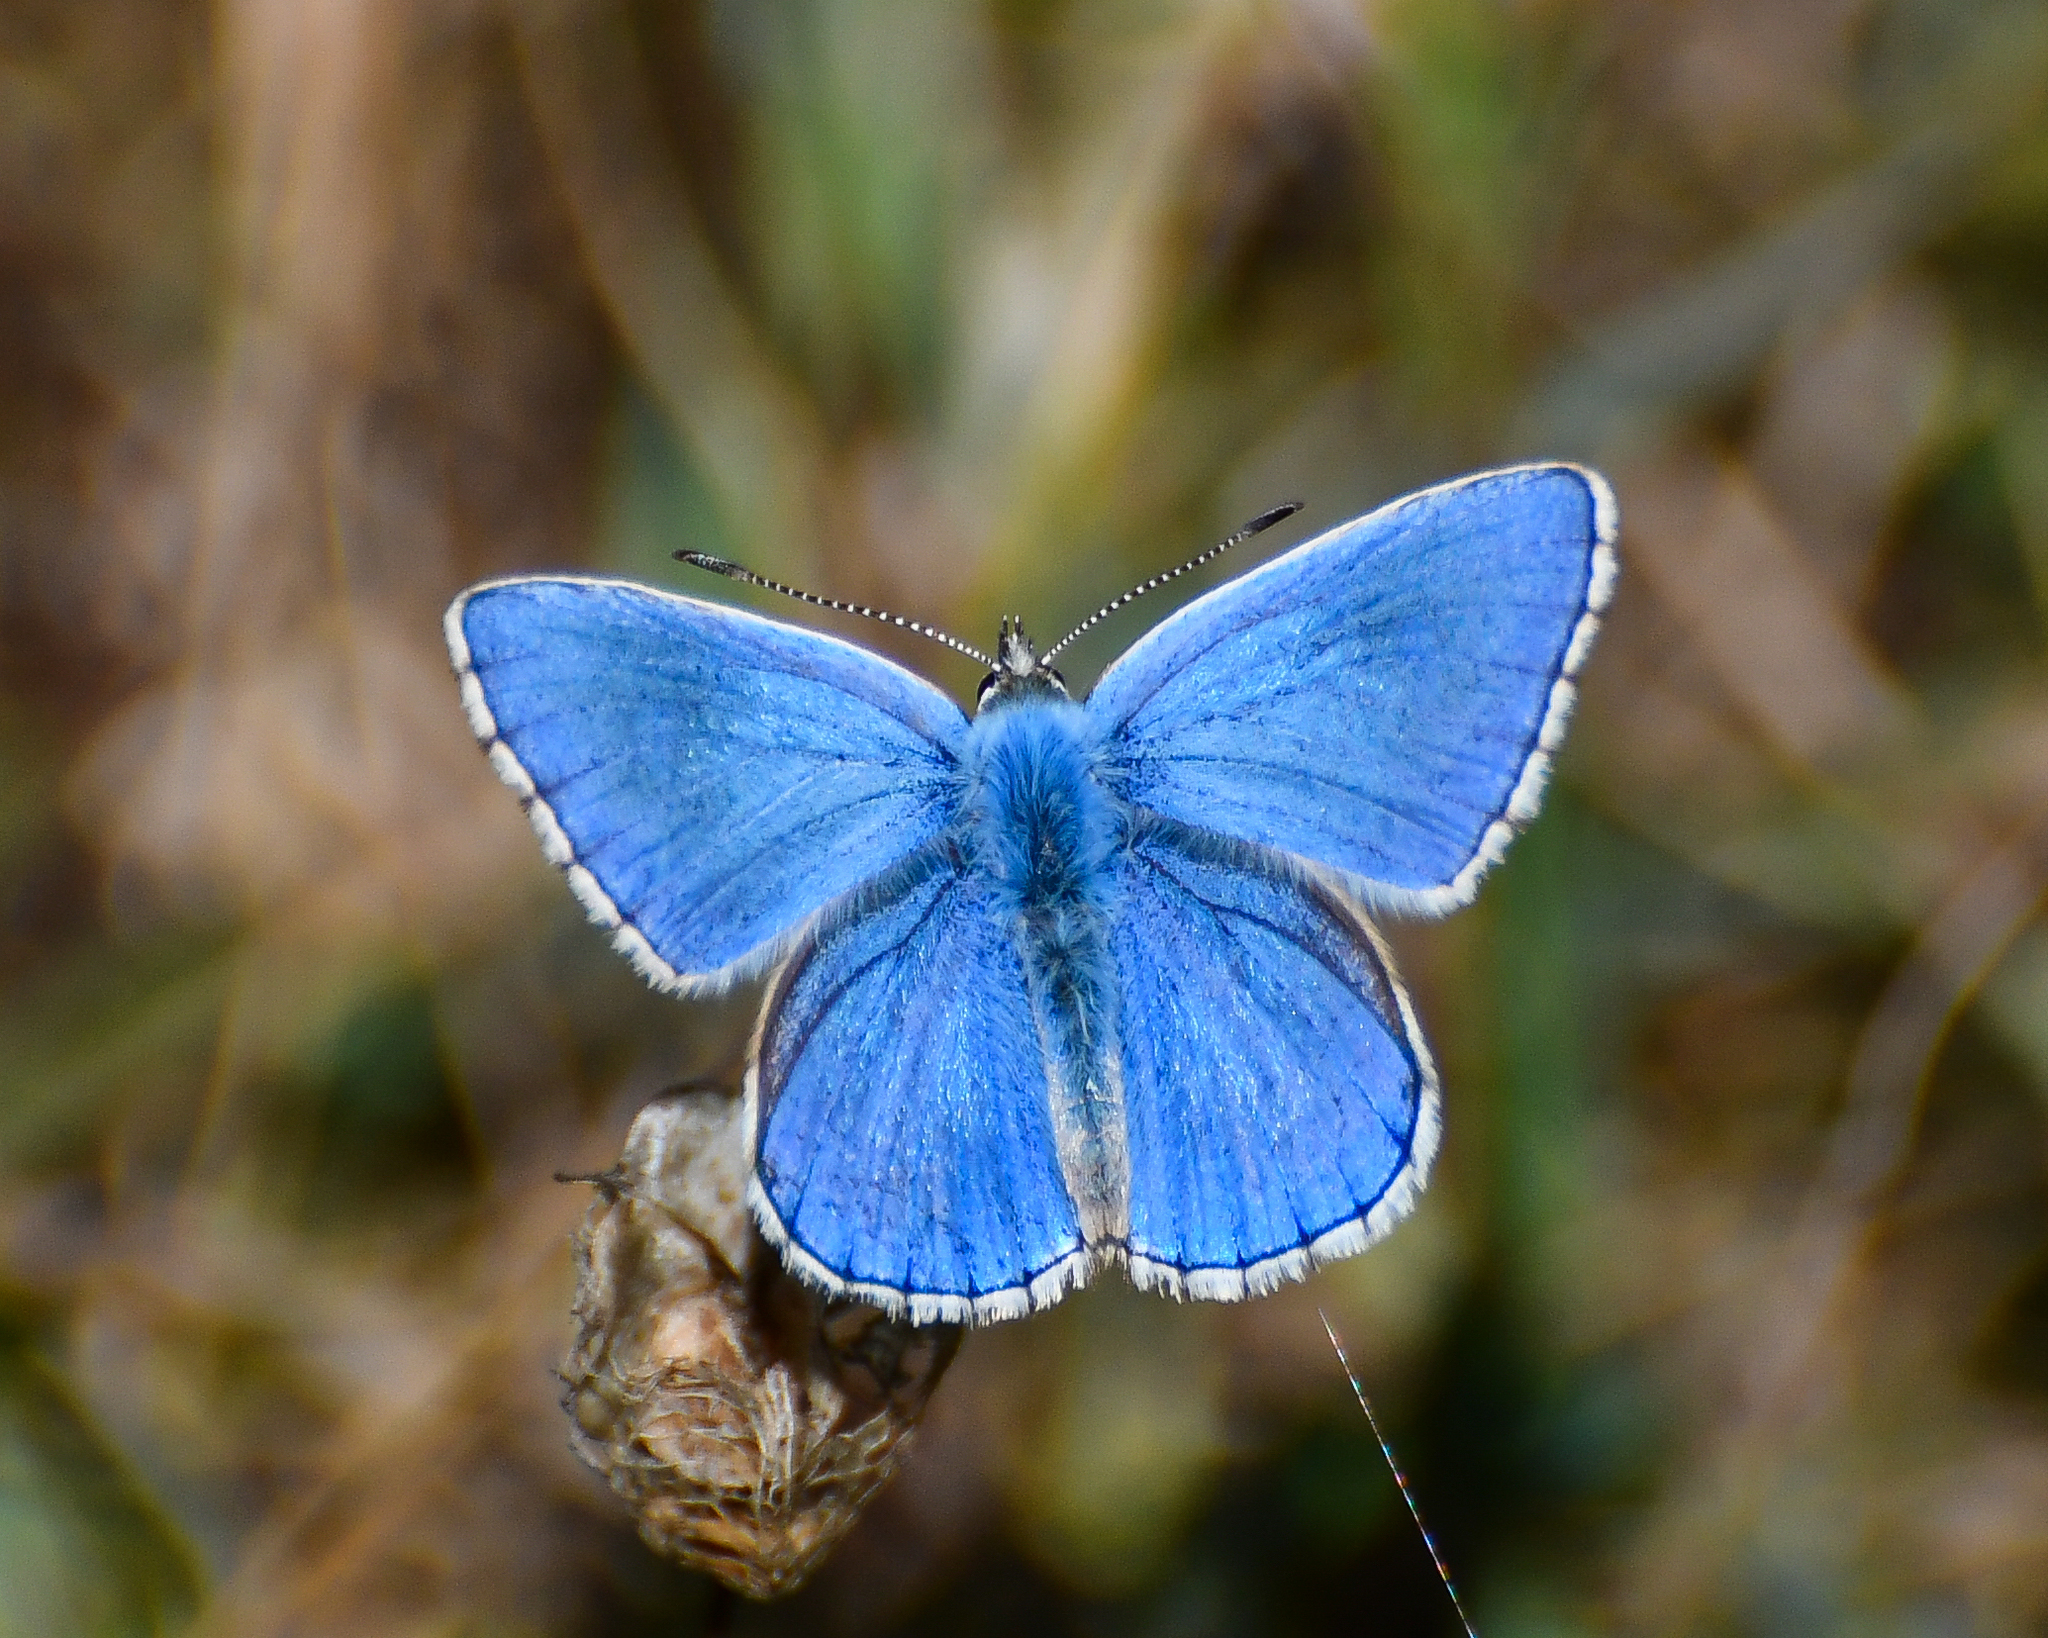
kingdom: Animalia
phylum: Arthropoda
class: Insecta
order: Lepidoptera
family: Lycaenidae
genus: Lysandra
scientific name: Lysandra bellargus
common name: Adonis blue
